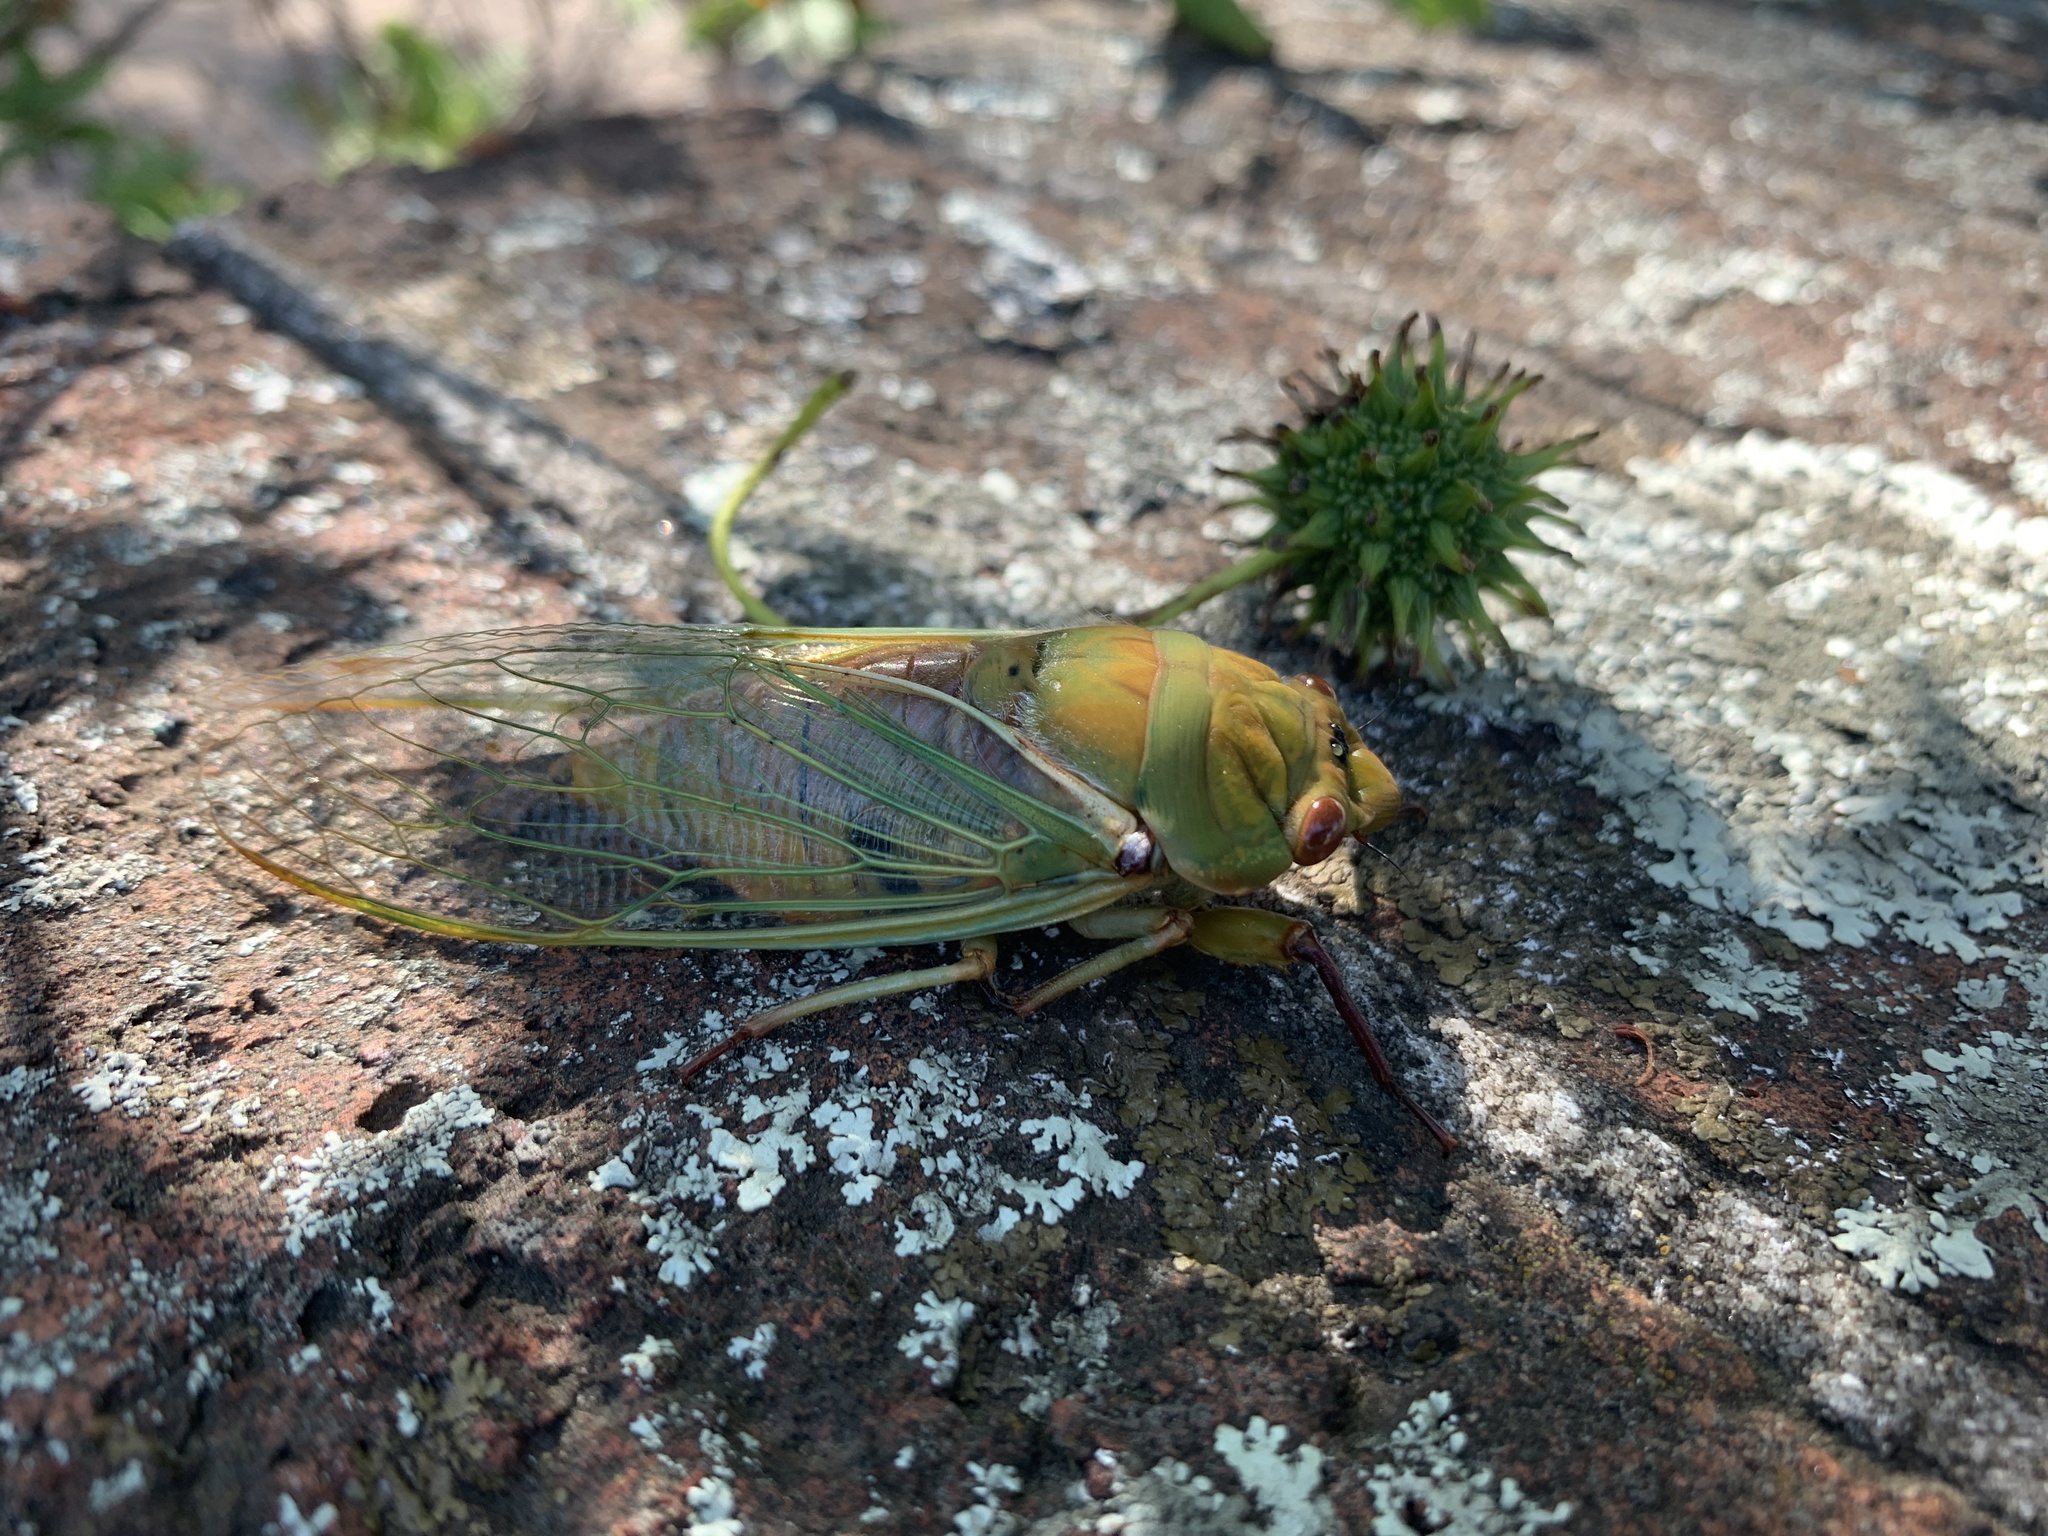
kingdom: Animalia
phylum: Arthropoda
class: Insecta
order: Hemiptera
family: Cicadidae
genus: Cyclochila
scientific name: Cyclochila australasiae
